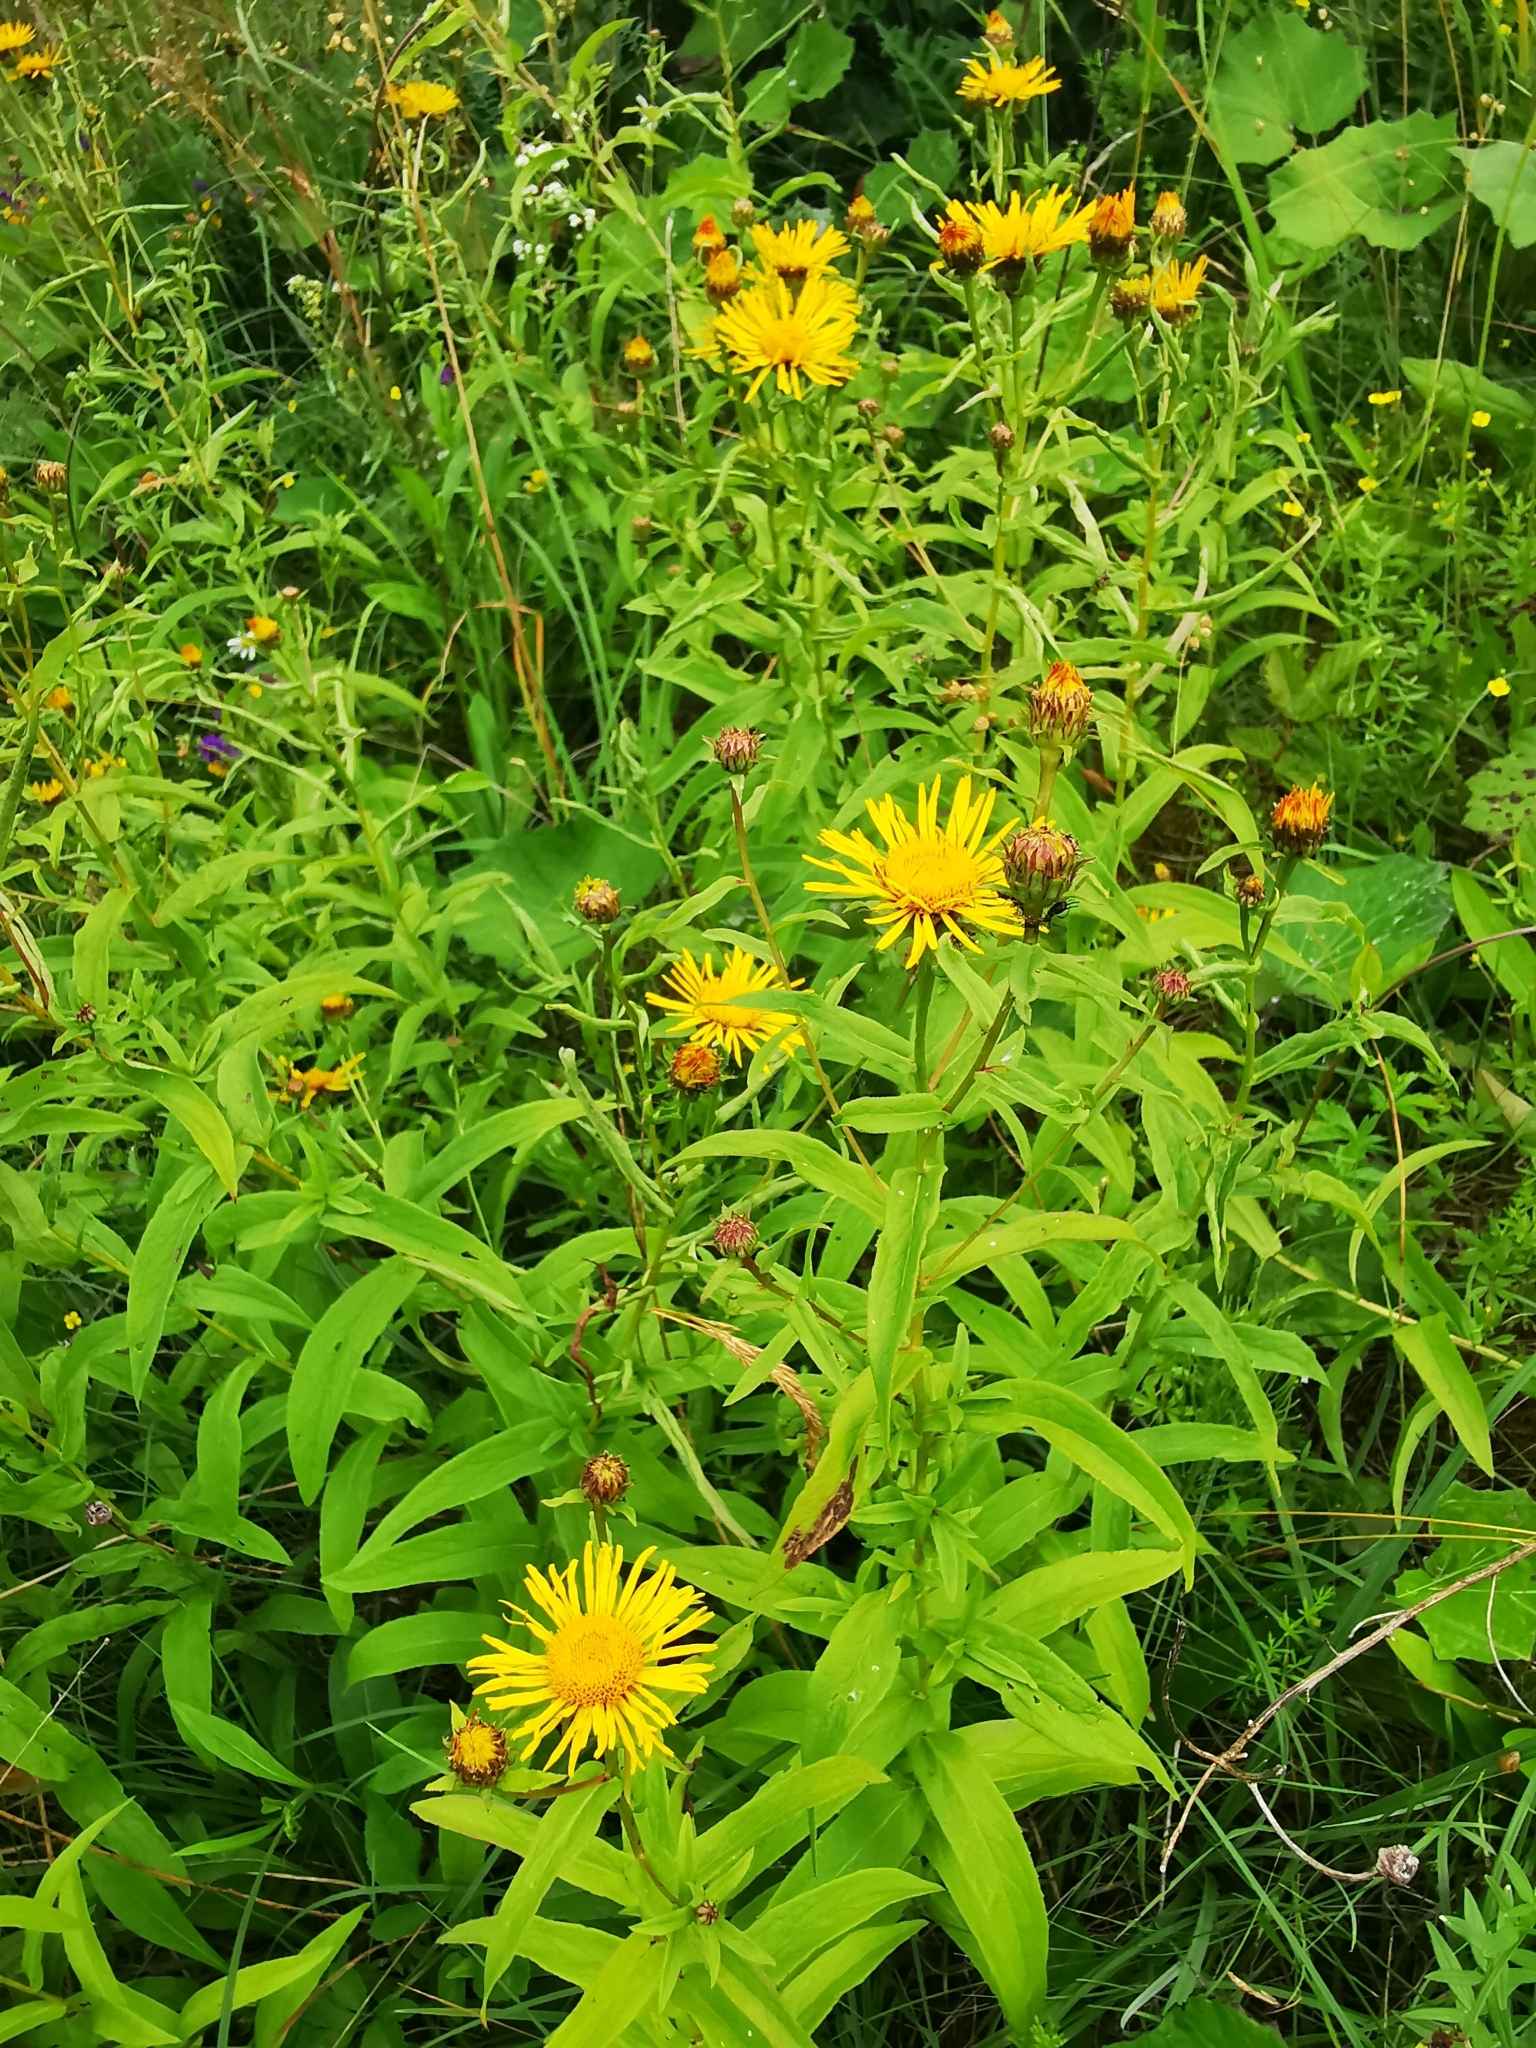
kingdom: Plantae
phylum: Tracheophyta
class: Magnoliopsida
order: Asterales
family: Asteraceae
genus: Pentanema
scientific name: Pentanema salicinum
